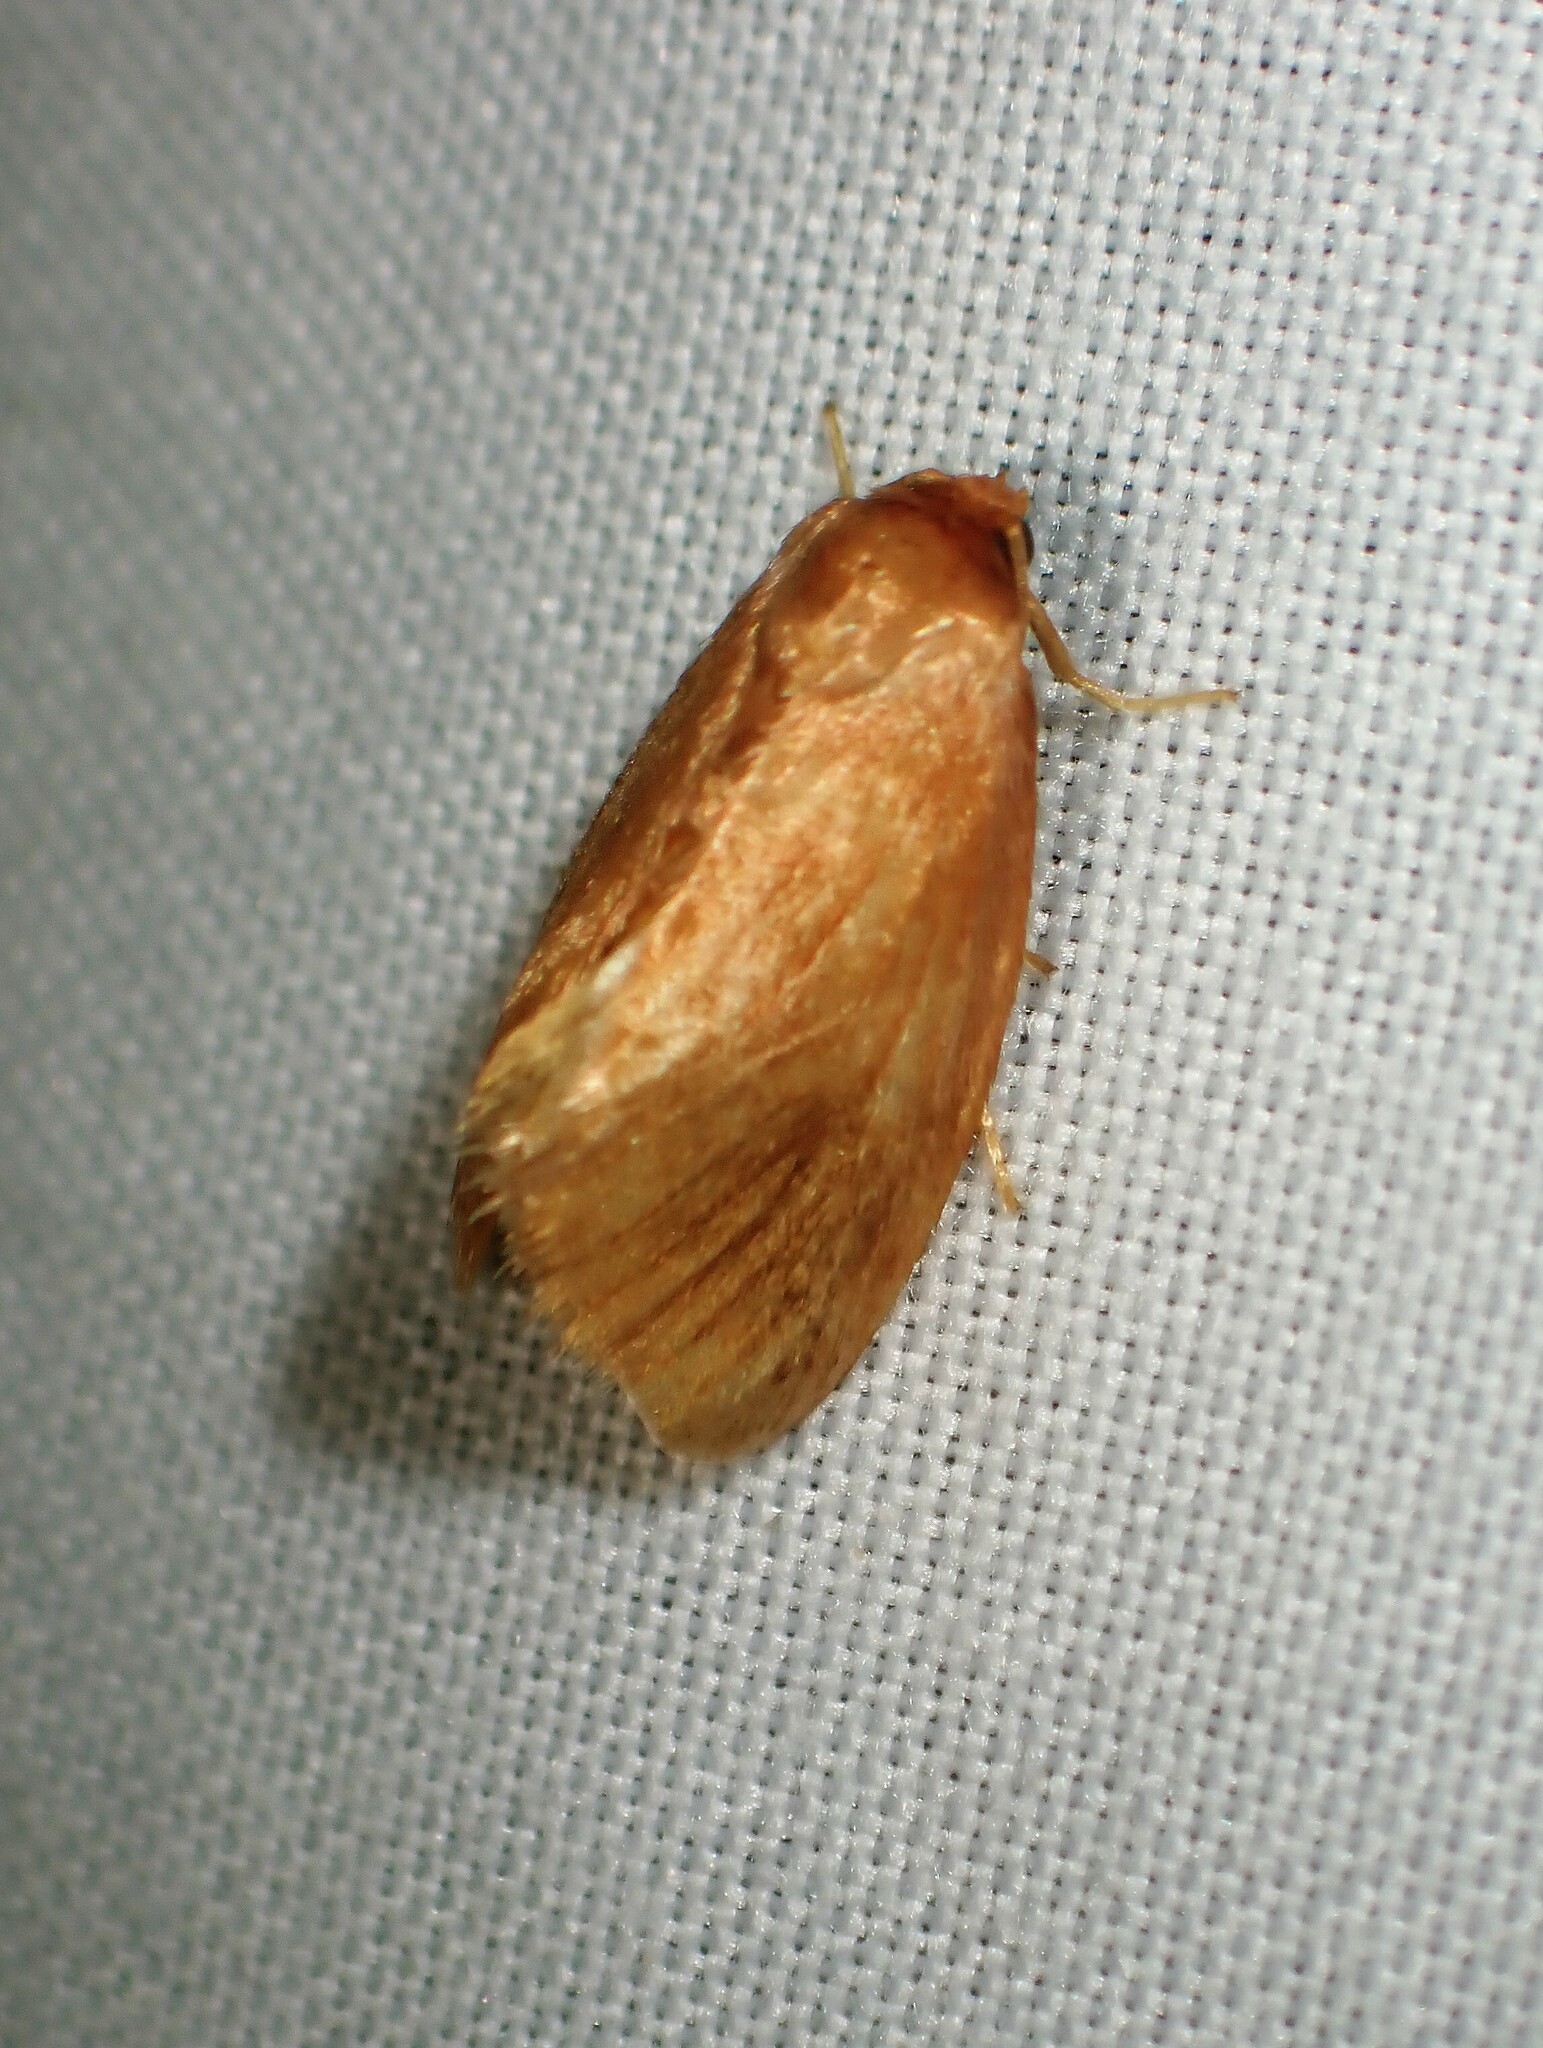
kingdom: Animalia
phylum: Arthropoda
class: Insecta
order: Lepidoptera
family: Limacodidae
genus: Tortricidia
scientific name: Tortricidia testacea
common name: Early button slug moth
